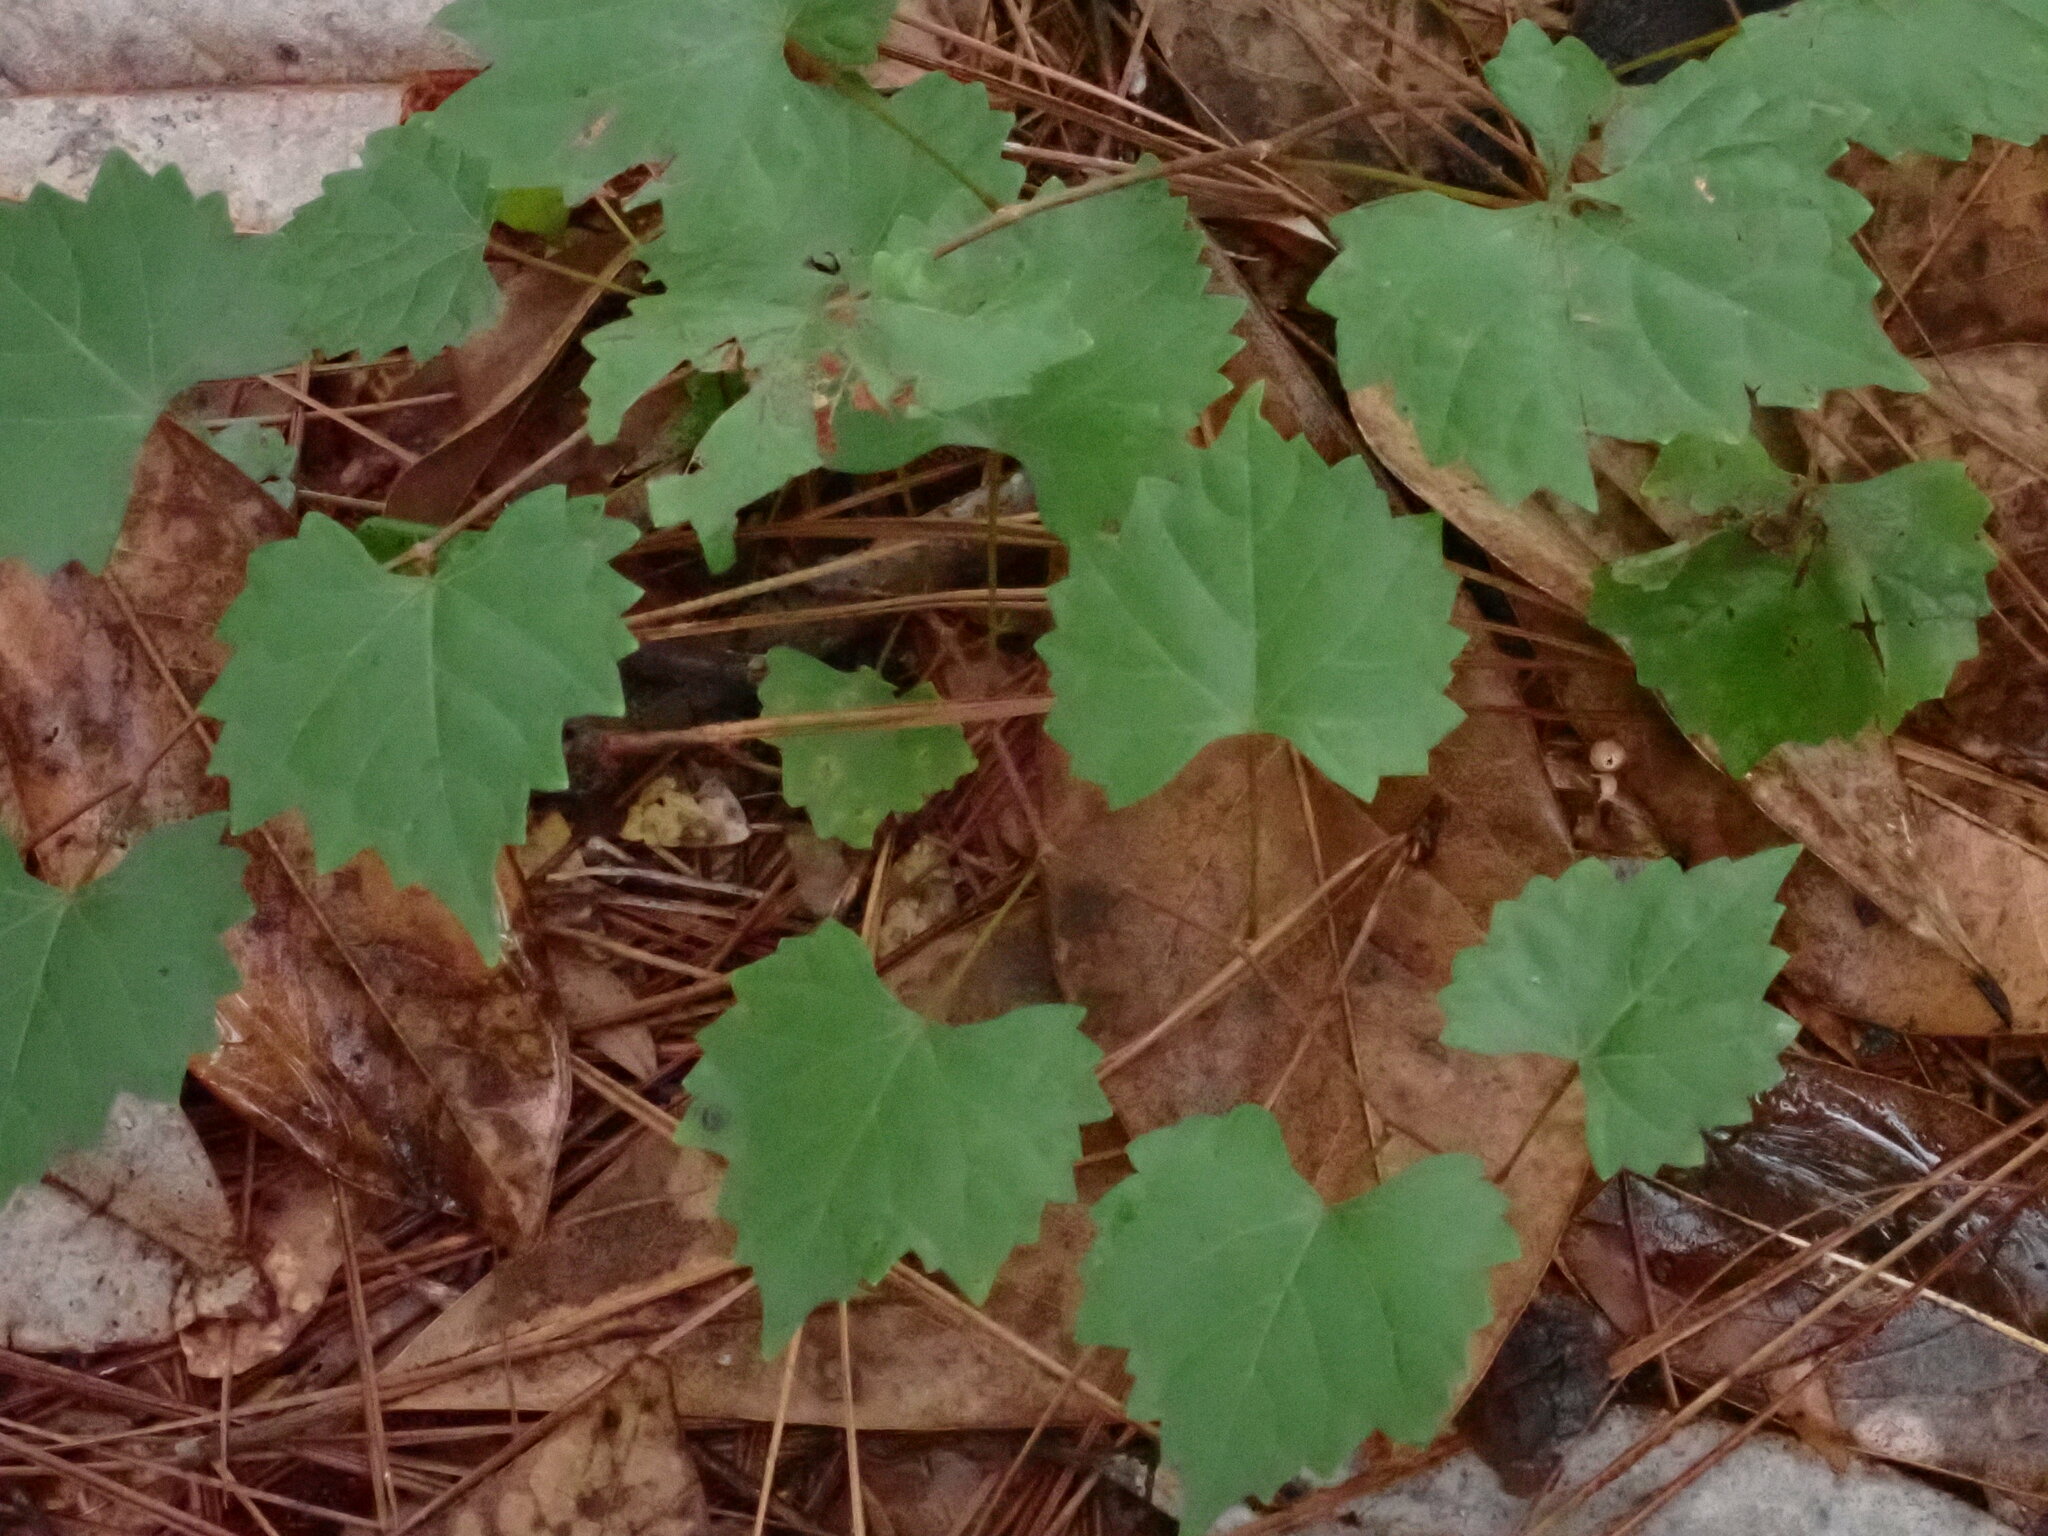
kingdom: Plantae
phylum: Tracheophyta
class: Magnoliopsida
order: Vitales
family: Vitaceae
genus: Vitis
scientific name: Vitis rotundifolia
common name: Muscadine grape
